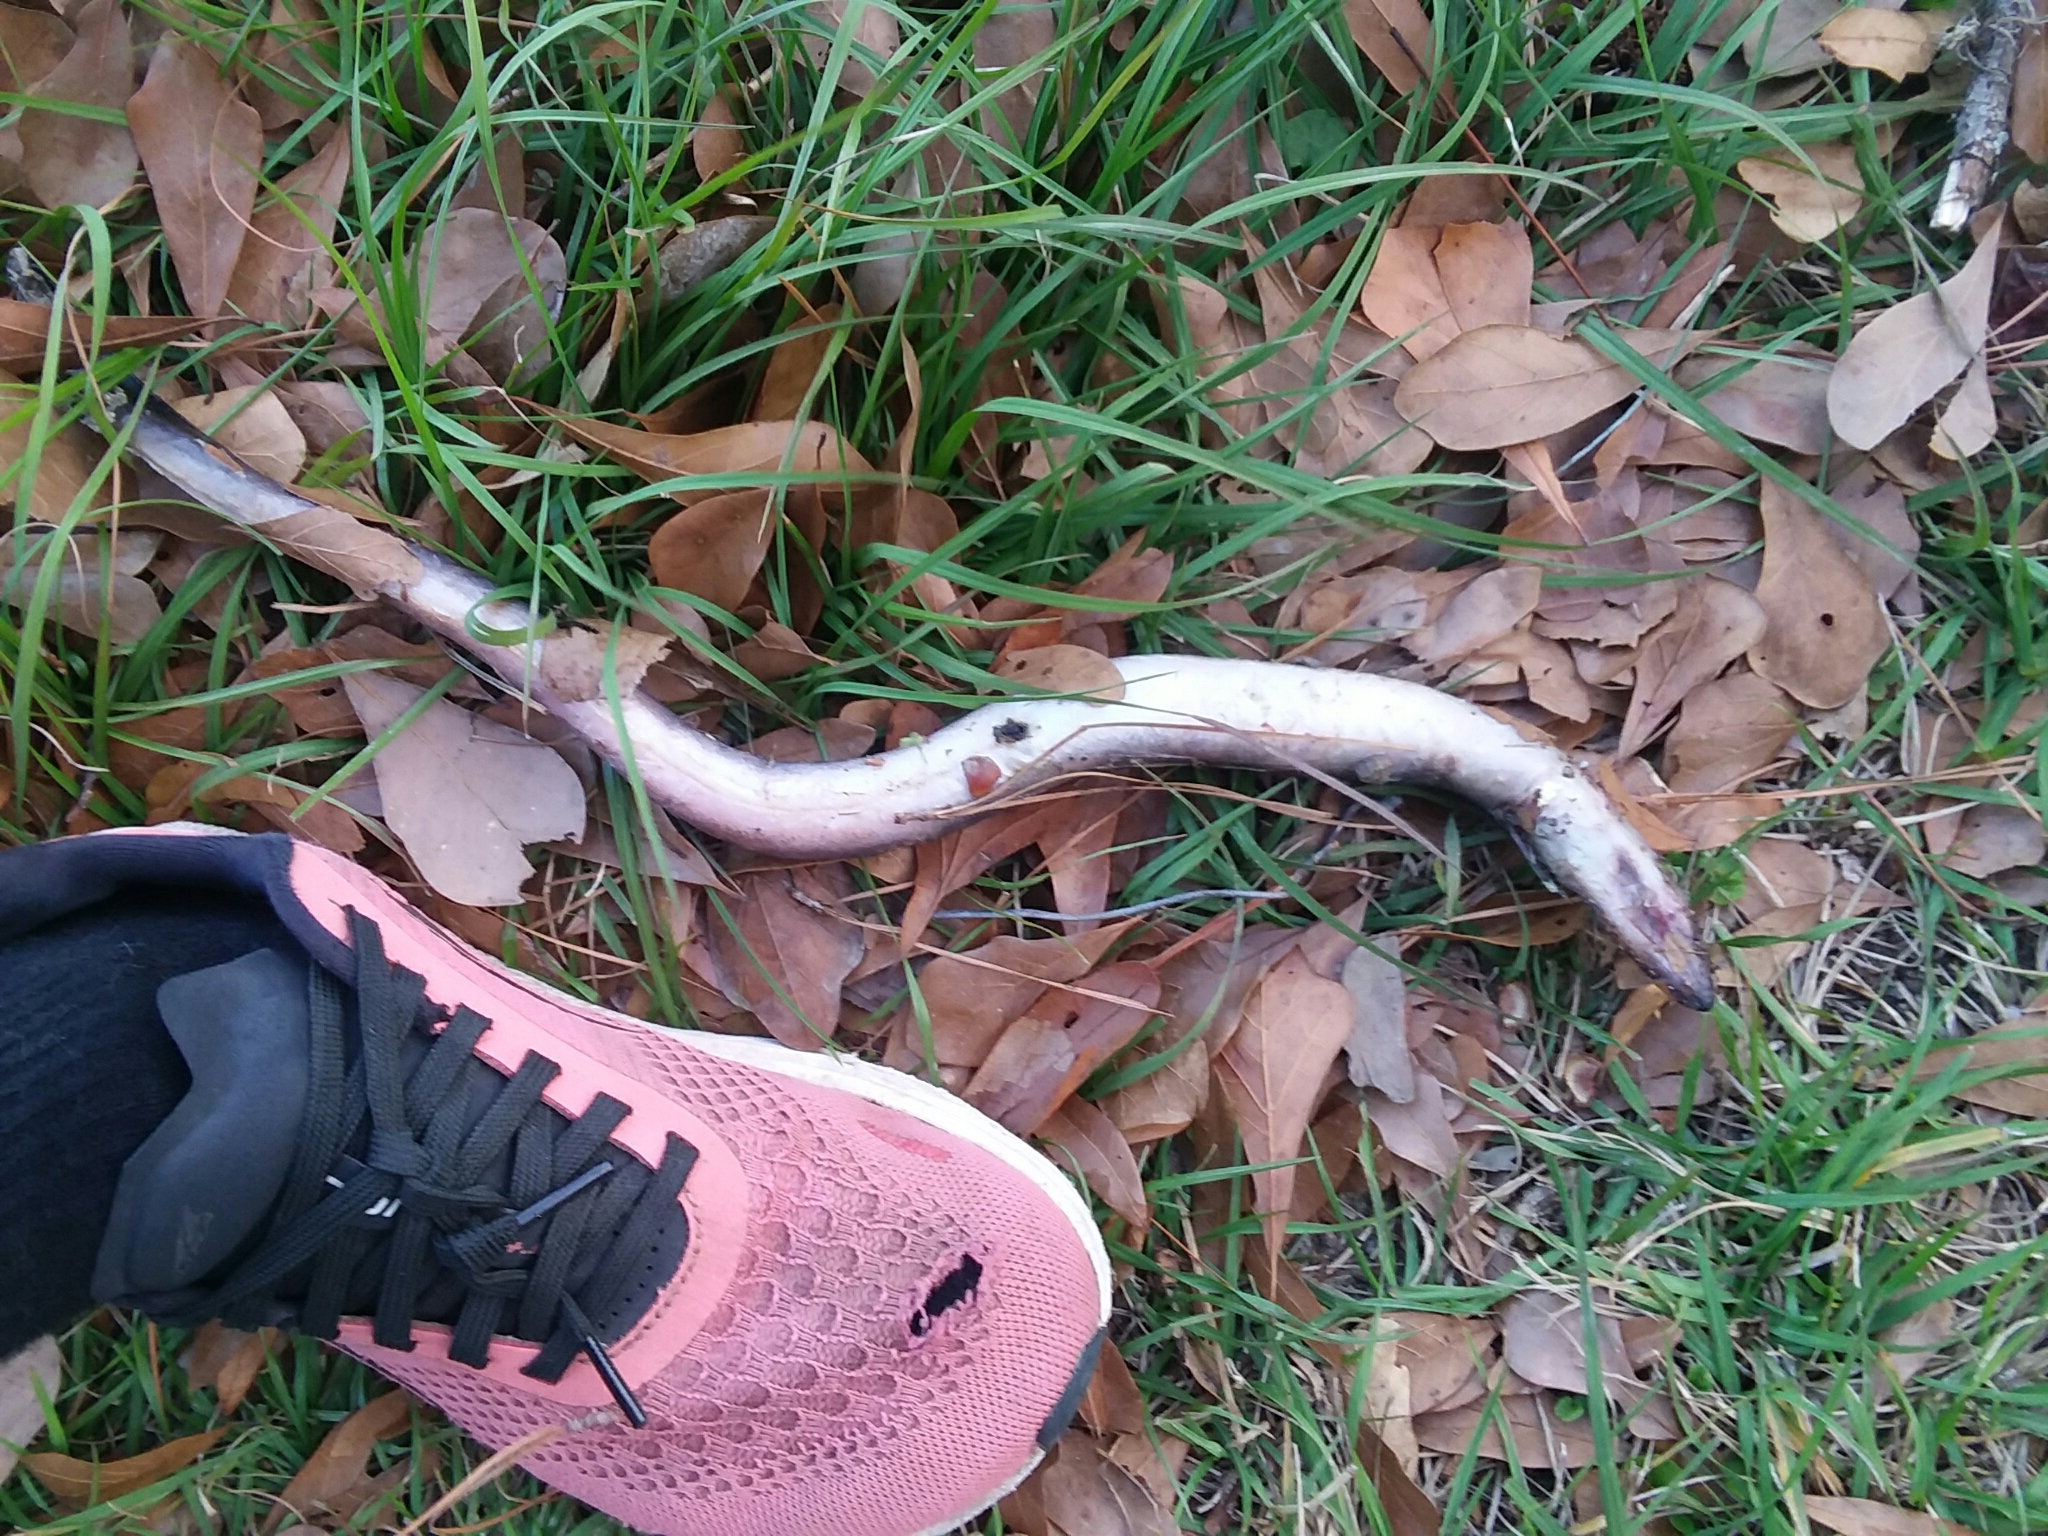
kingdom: Animalia
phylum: Chordata
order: Anguilliformes
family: Anguillidae
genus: Anguilla
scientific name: Anguilla rostrata
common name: American eel
